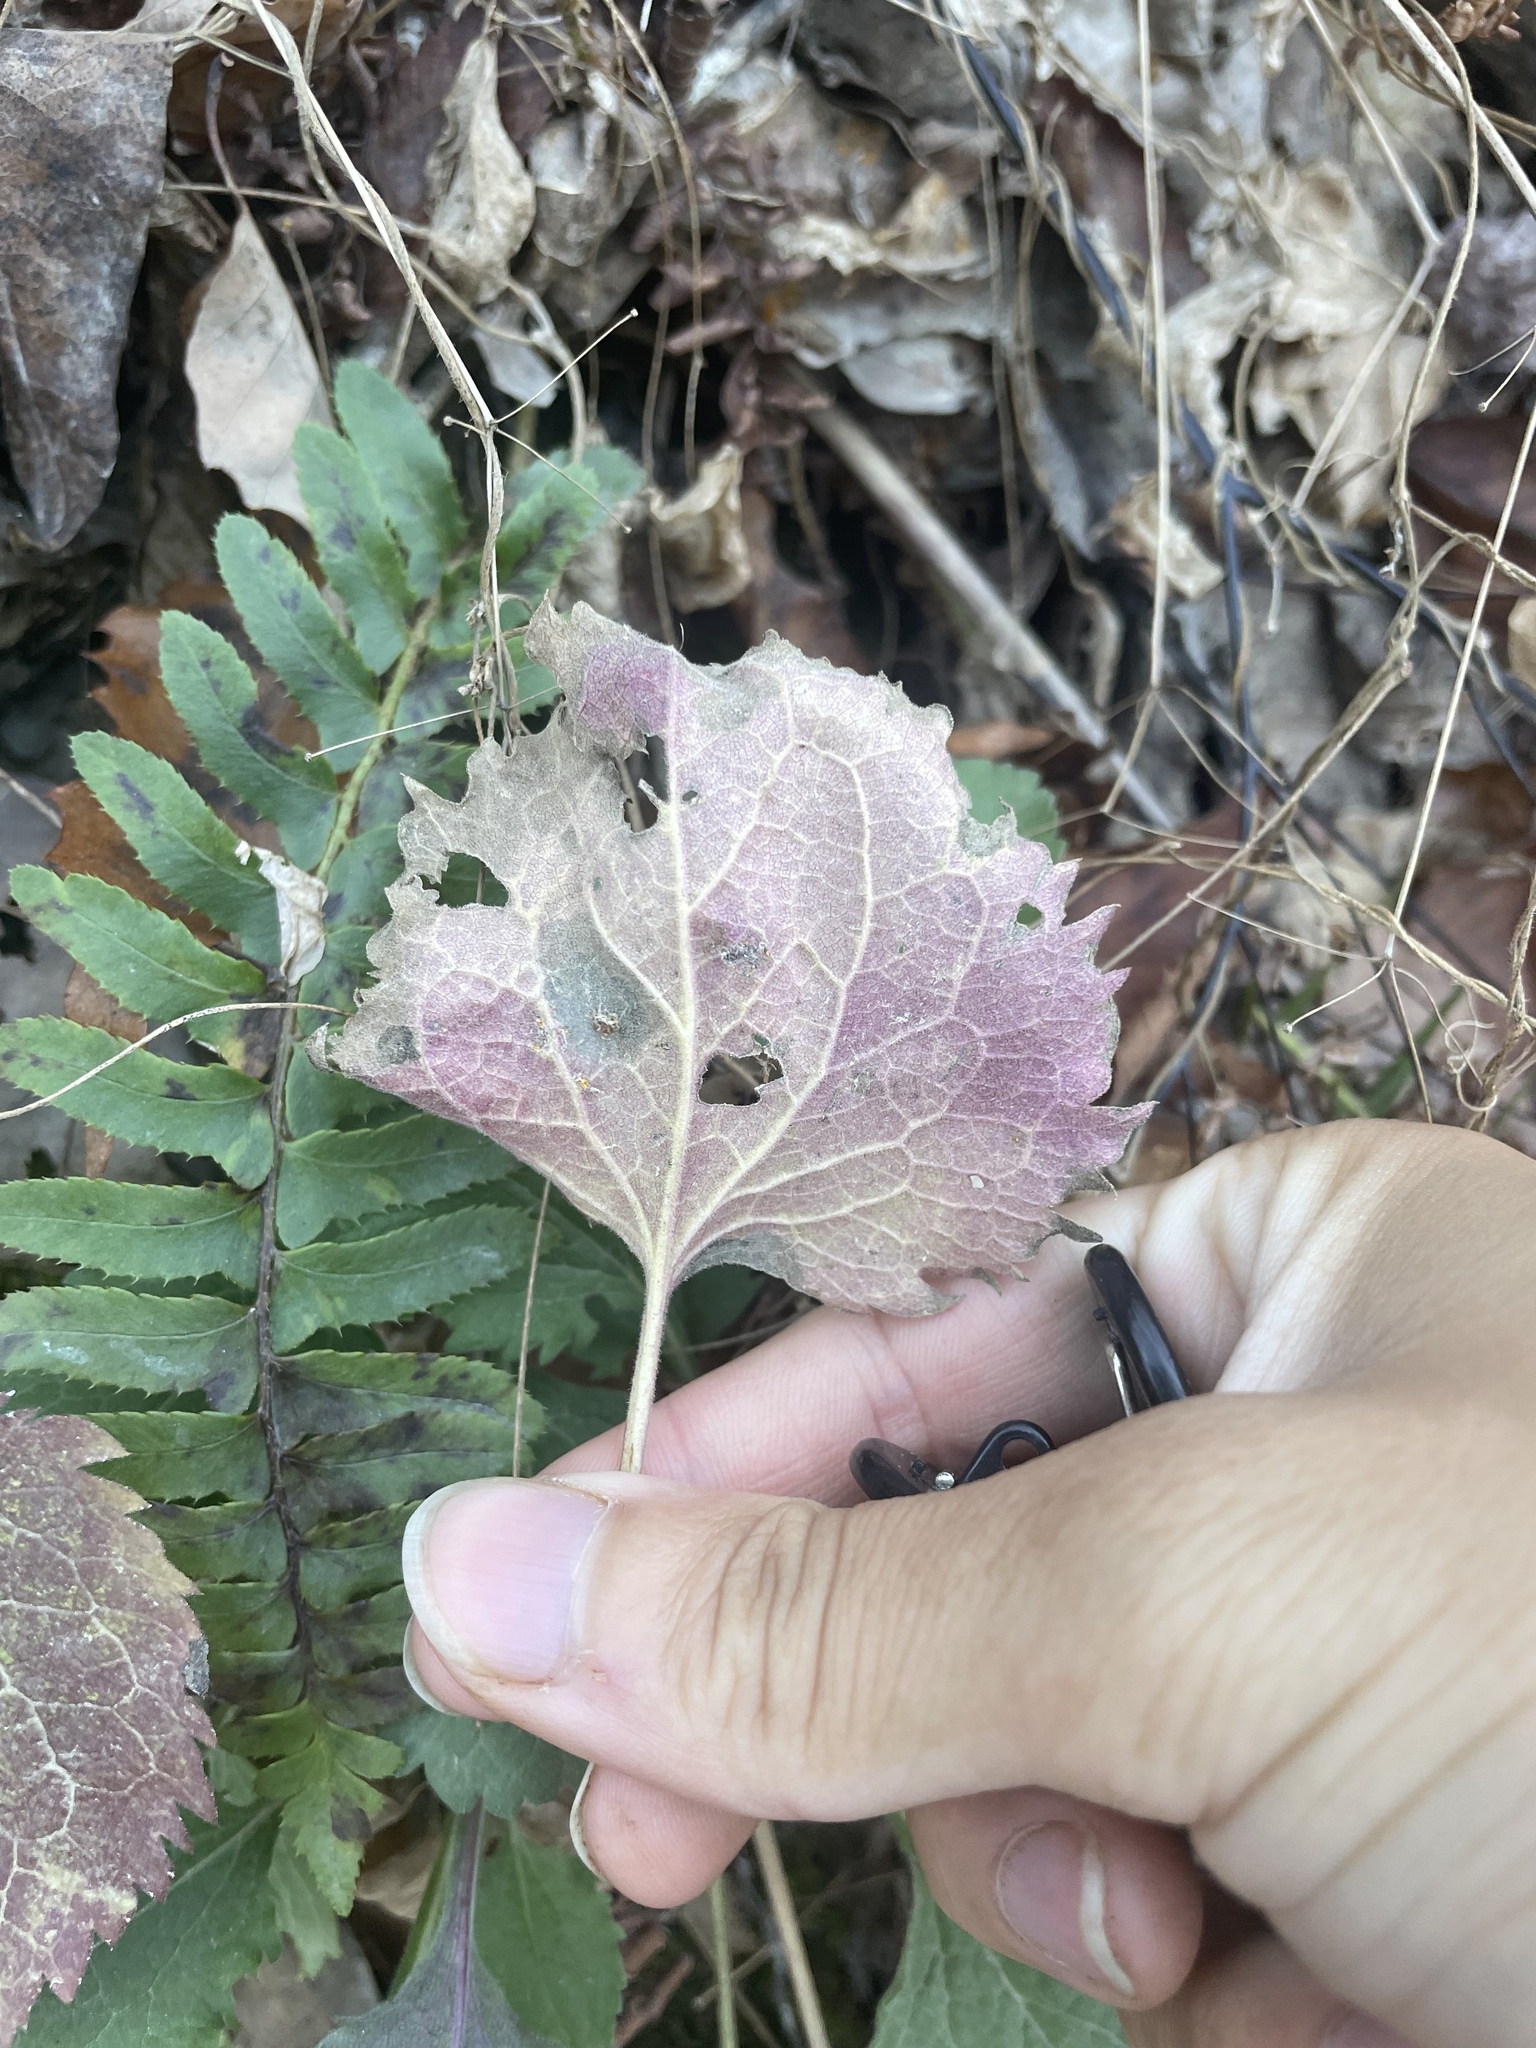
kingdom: Plantae
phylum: Tracheophyta
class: Magnoliopsida
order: Asterales
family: Asteraceae
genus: Solidago
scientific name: Solidago sphacelata
